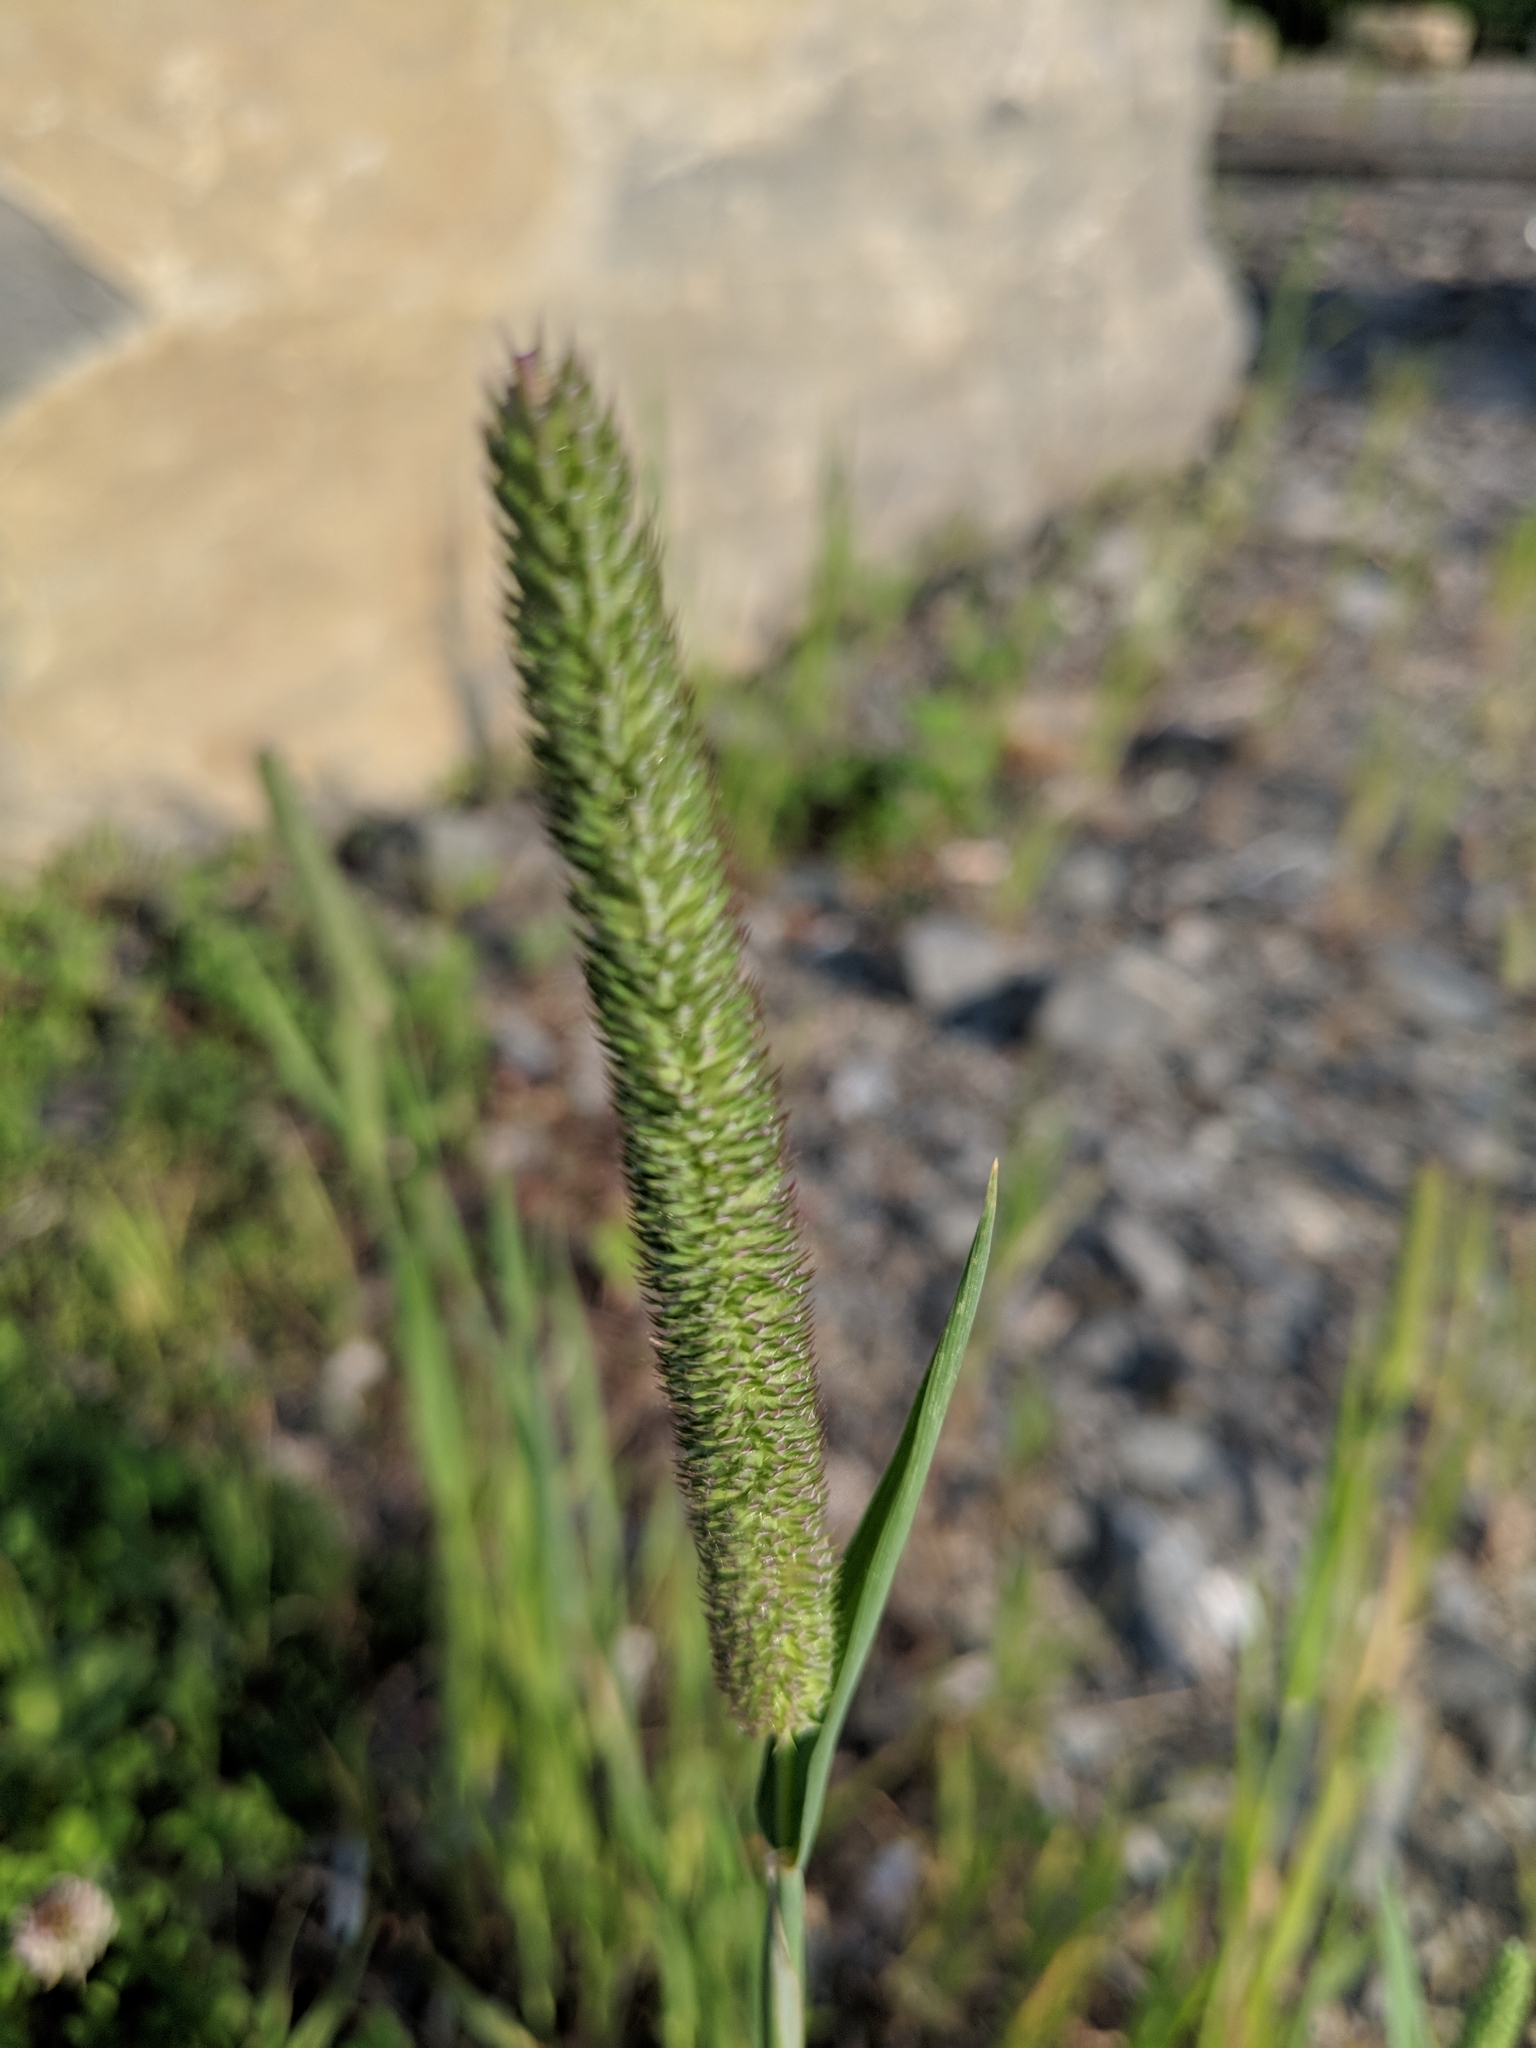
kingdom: Plantae
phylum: Tracheophyta
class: Liliopsida
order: Poales
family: Poaceae
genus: Phleum
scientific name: Phleum pratense
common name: Timothy grass
